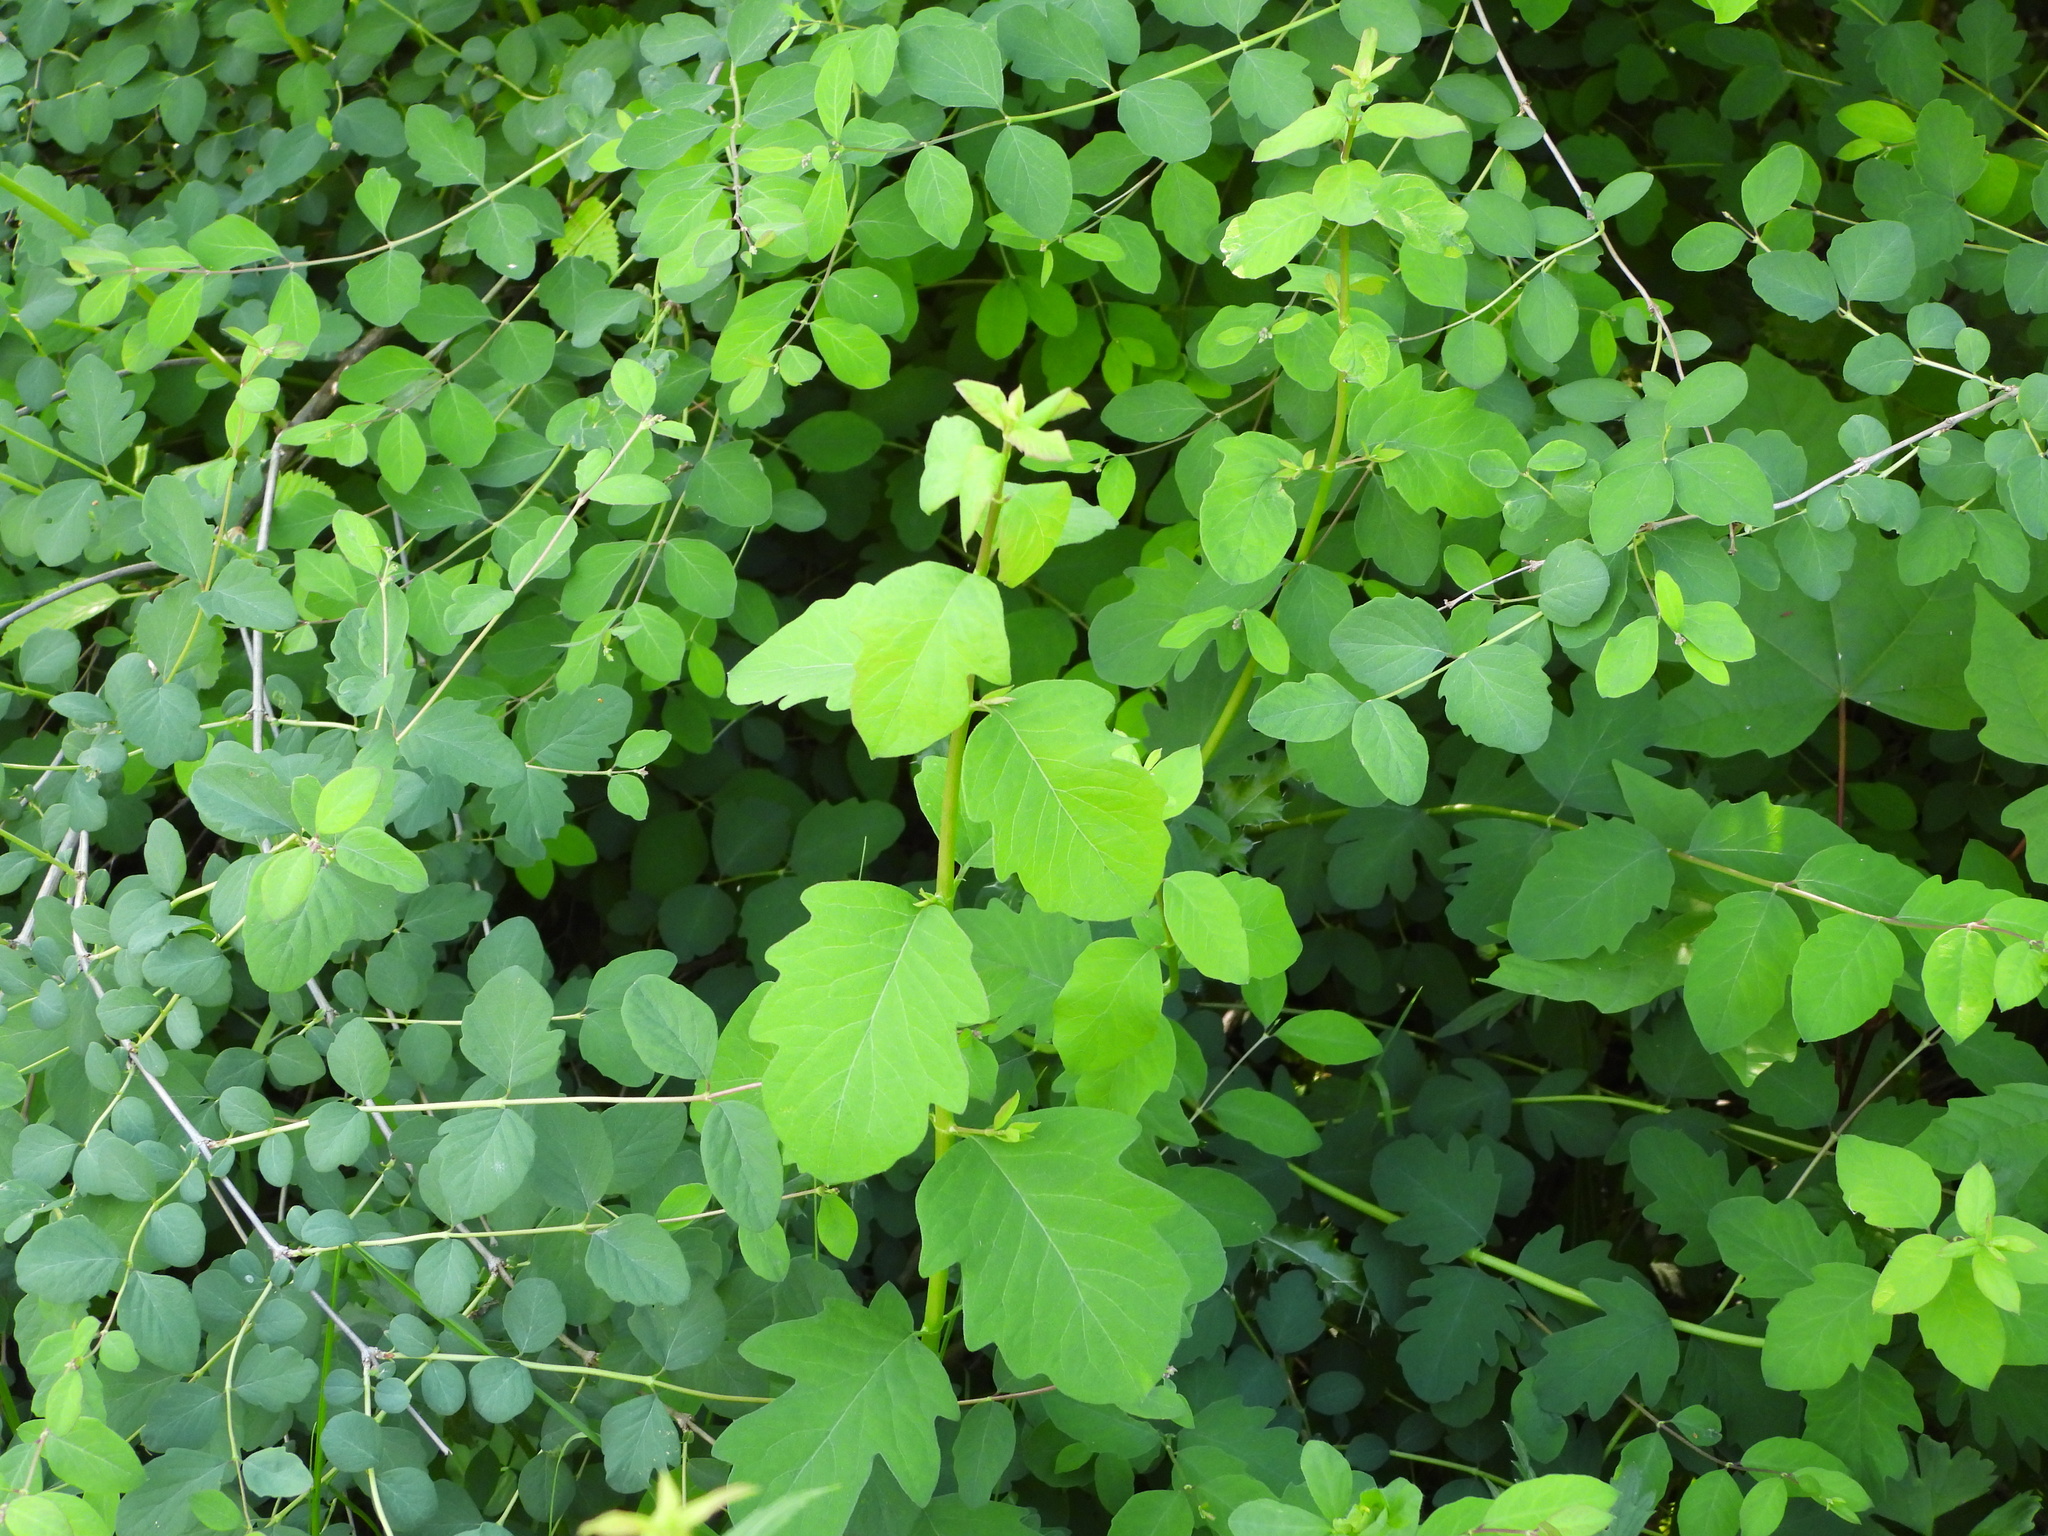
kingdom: Plantae
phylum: Tracheophyta
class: Magnoliopsida
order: Dipsacales
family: Caprifoliaceae
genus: Symphoricarpos
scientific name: Symphoricarpos albus
